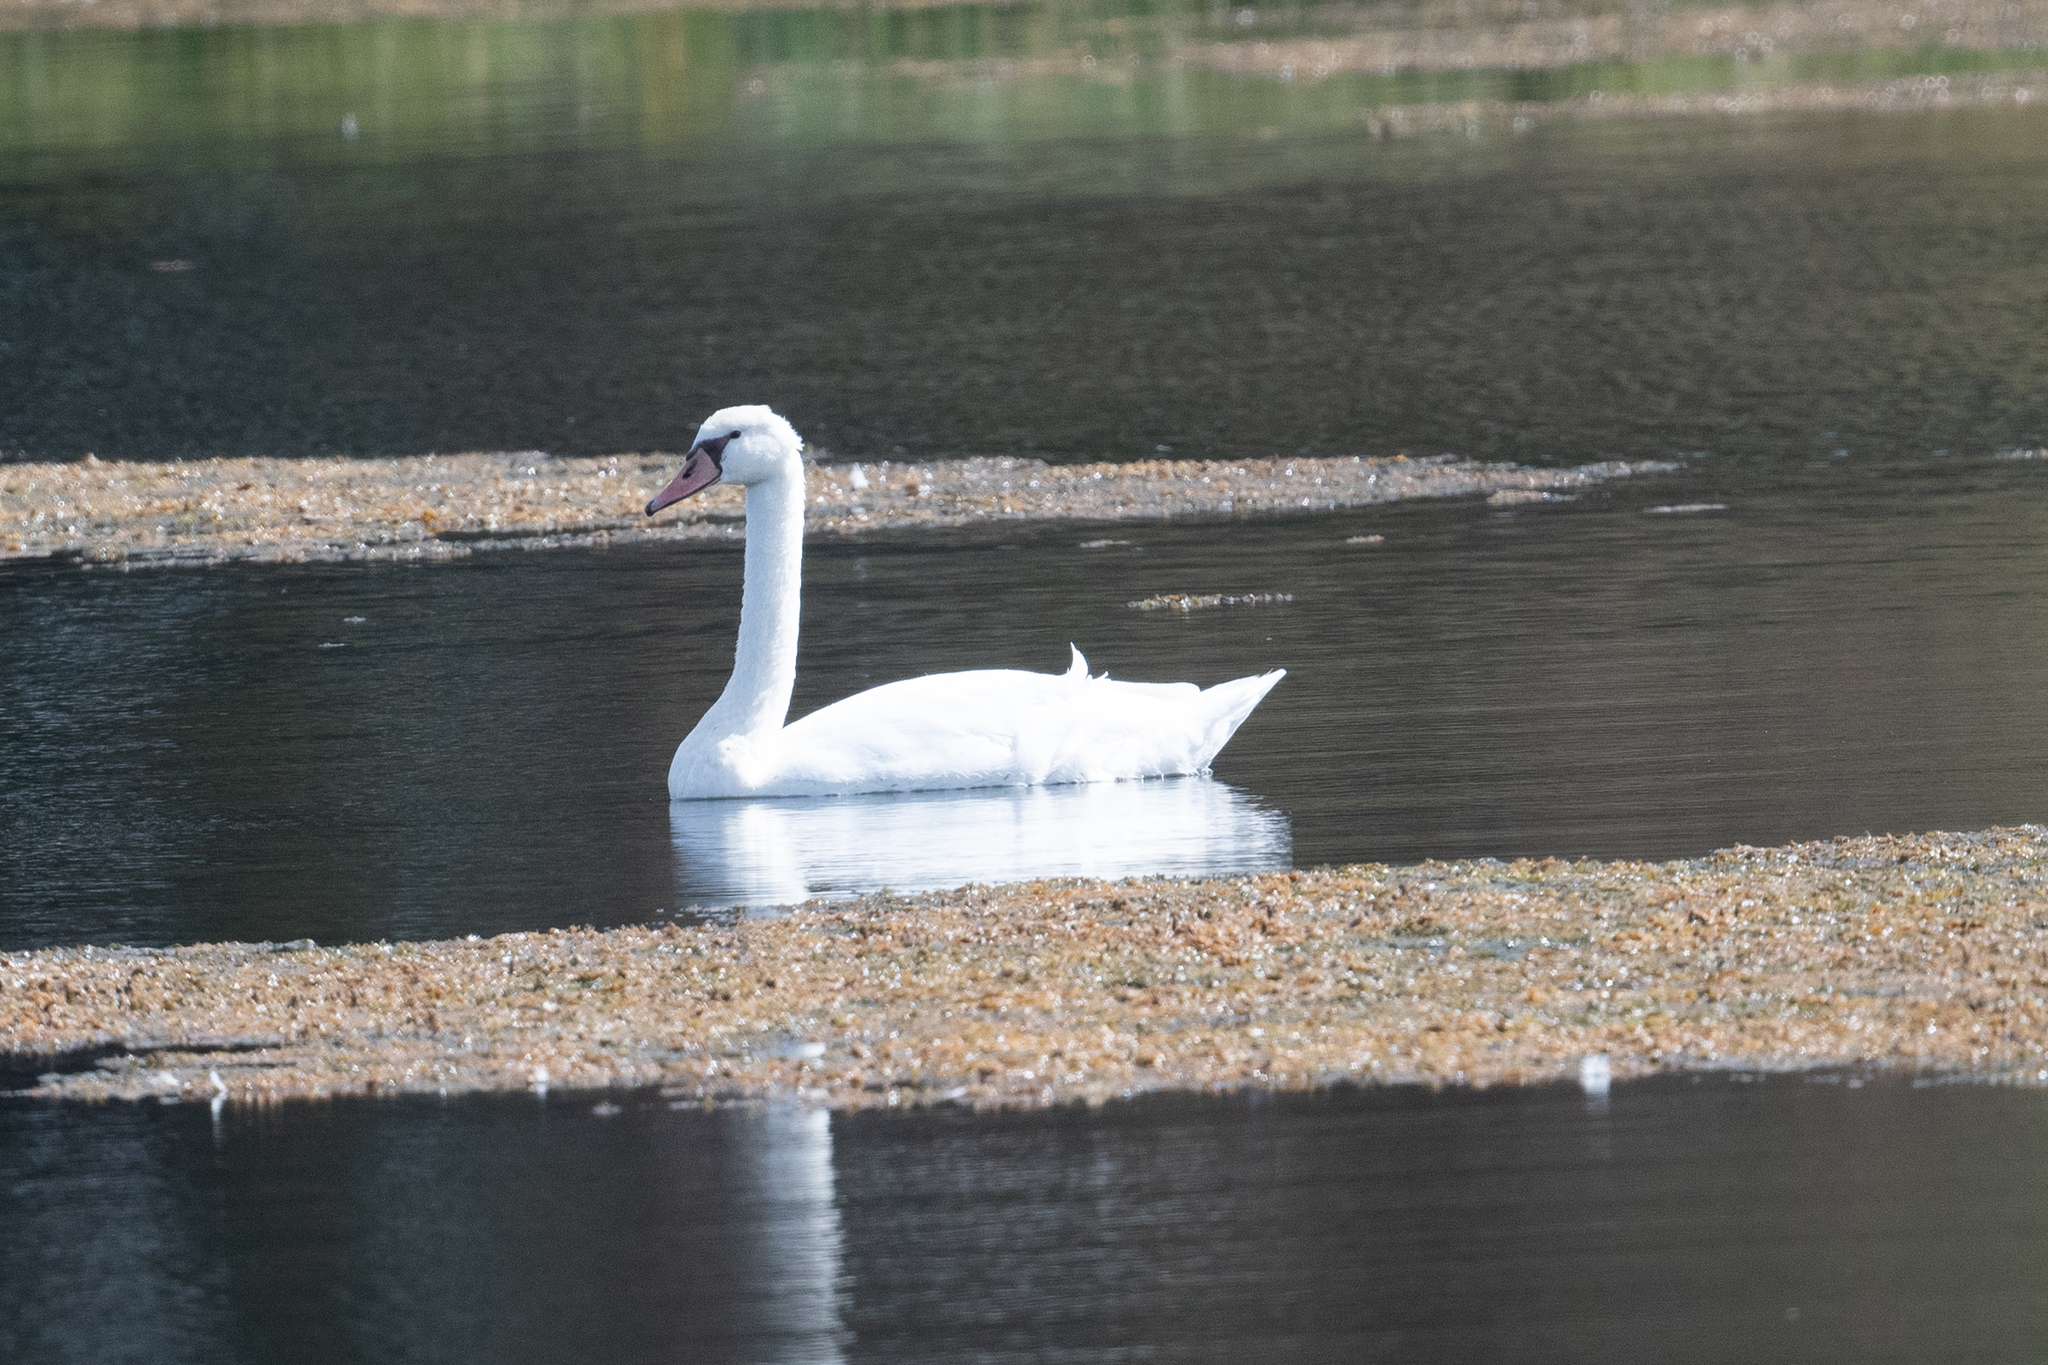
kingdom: Animalia
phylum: Chordata
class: Aves
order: Anseriformes
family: Anatidae
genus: Cygnus
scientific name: Cygnus olor
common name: Mute swan
